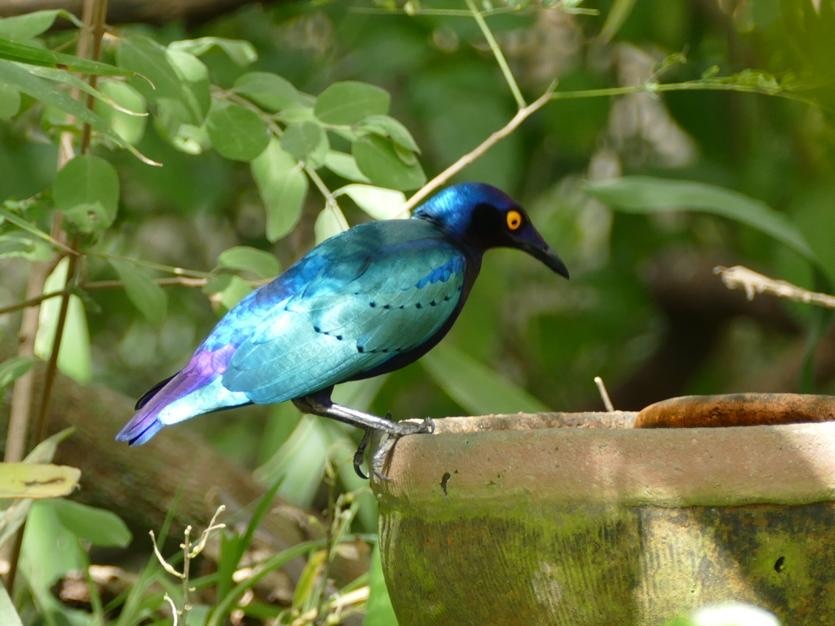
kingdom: Animalia
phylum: Chordata
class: Aves
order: Passeriformes
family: Sturnidae
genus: Lamprotornis
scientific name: Lamprotornis purpureus
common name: Purple starling
